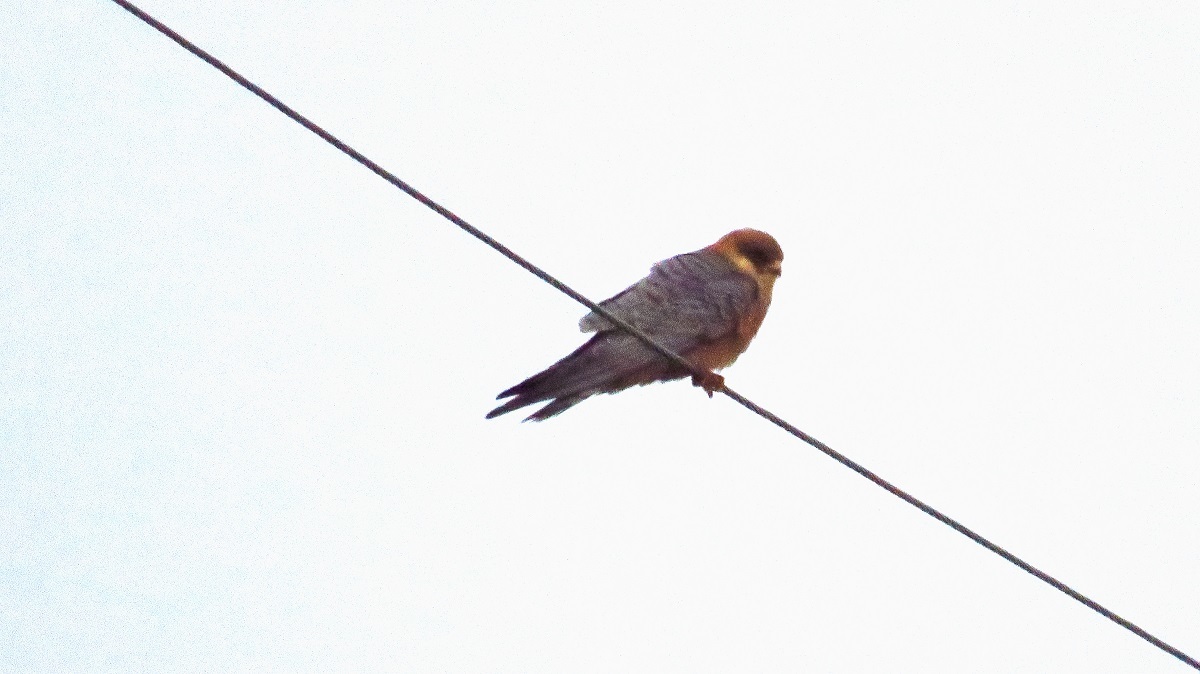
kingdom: Animalia
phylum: Chordata
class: Aves
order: Falconiformes
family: Falconidae
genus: Falco
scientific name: Falco vespertinus
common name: Red-footed falcon
